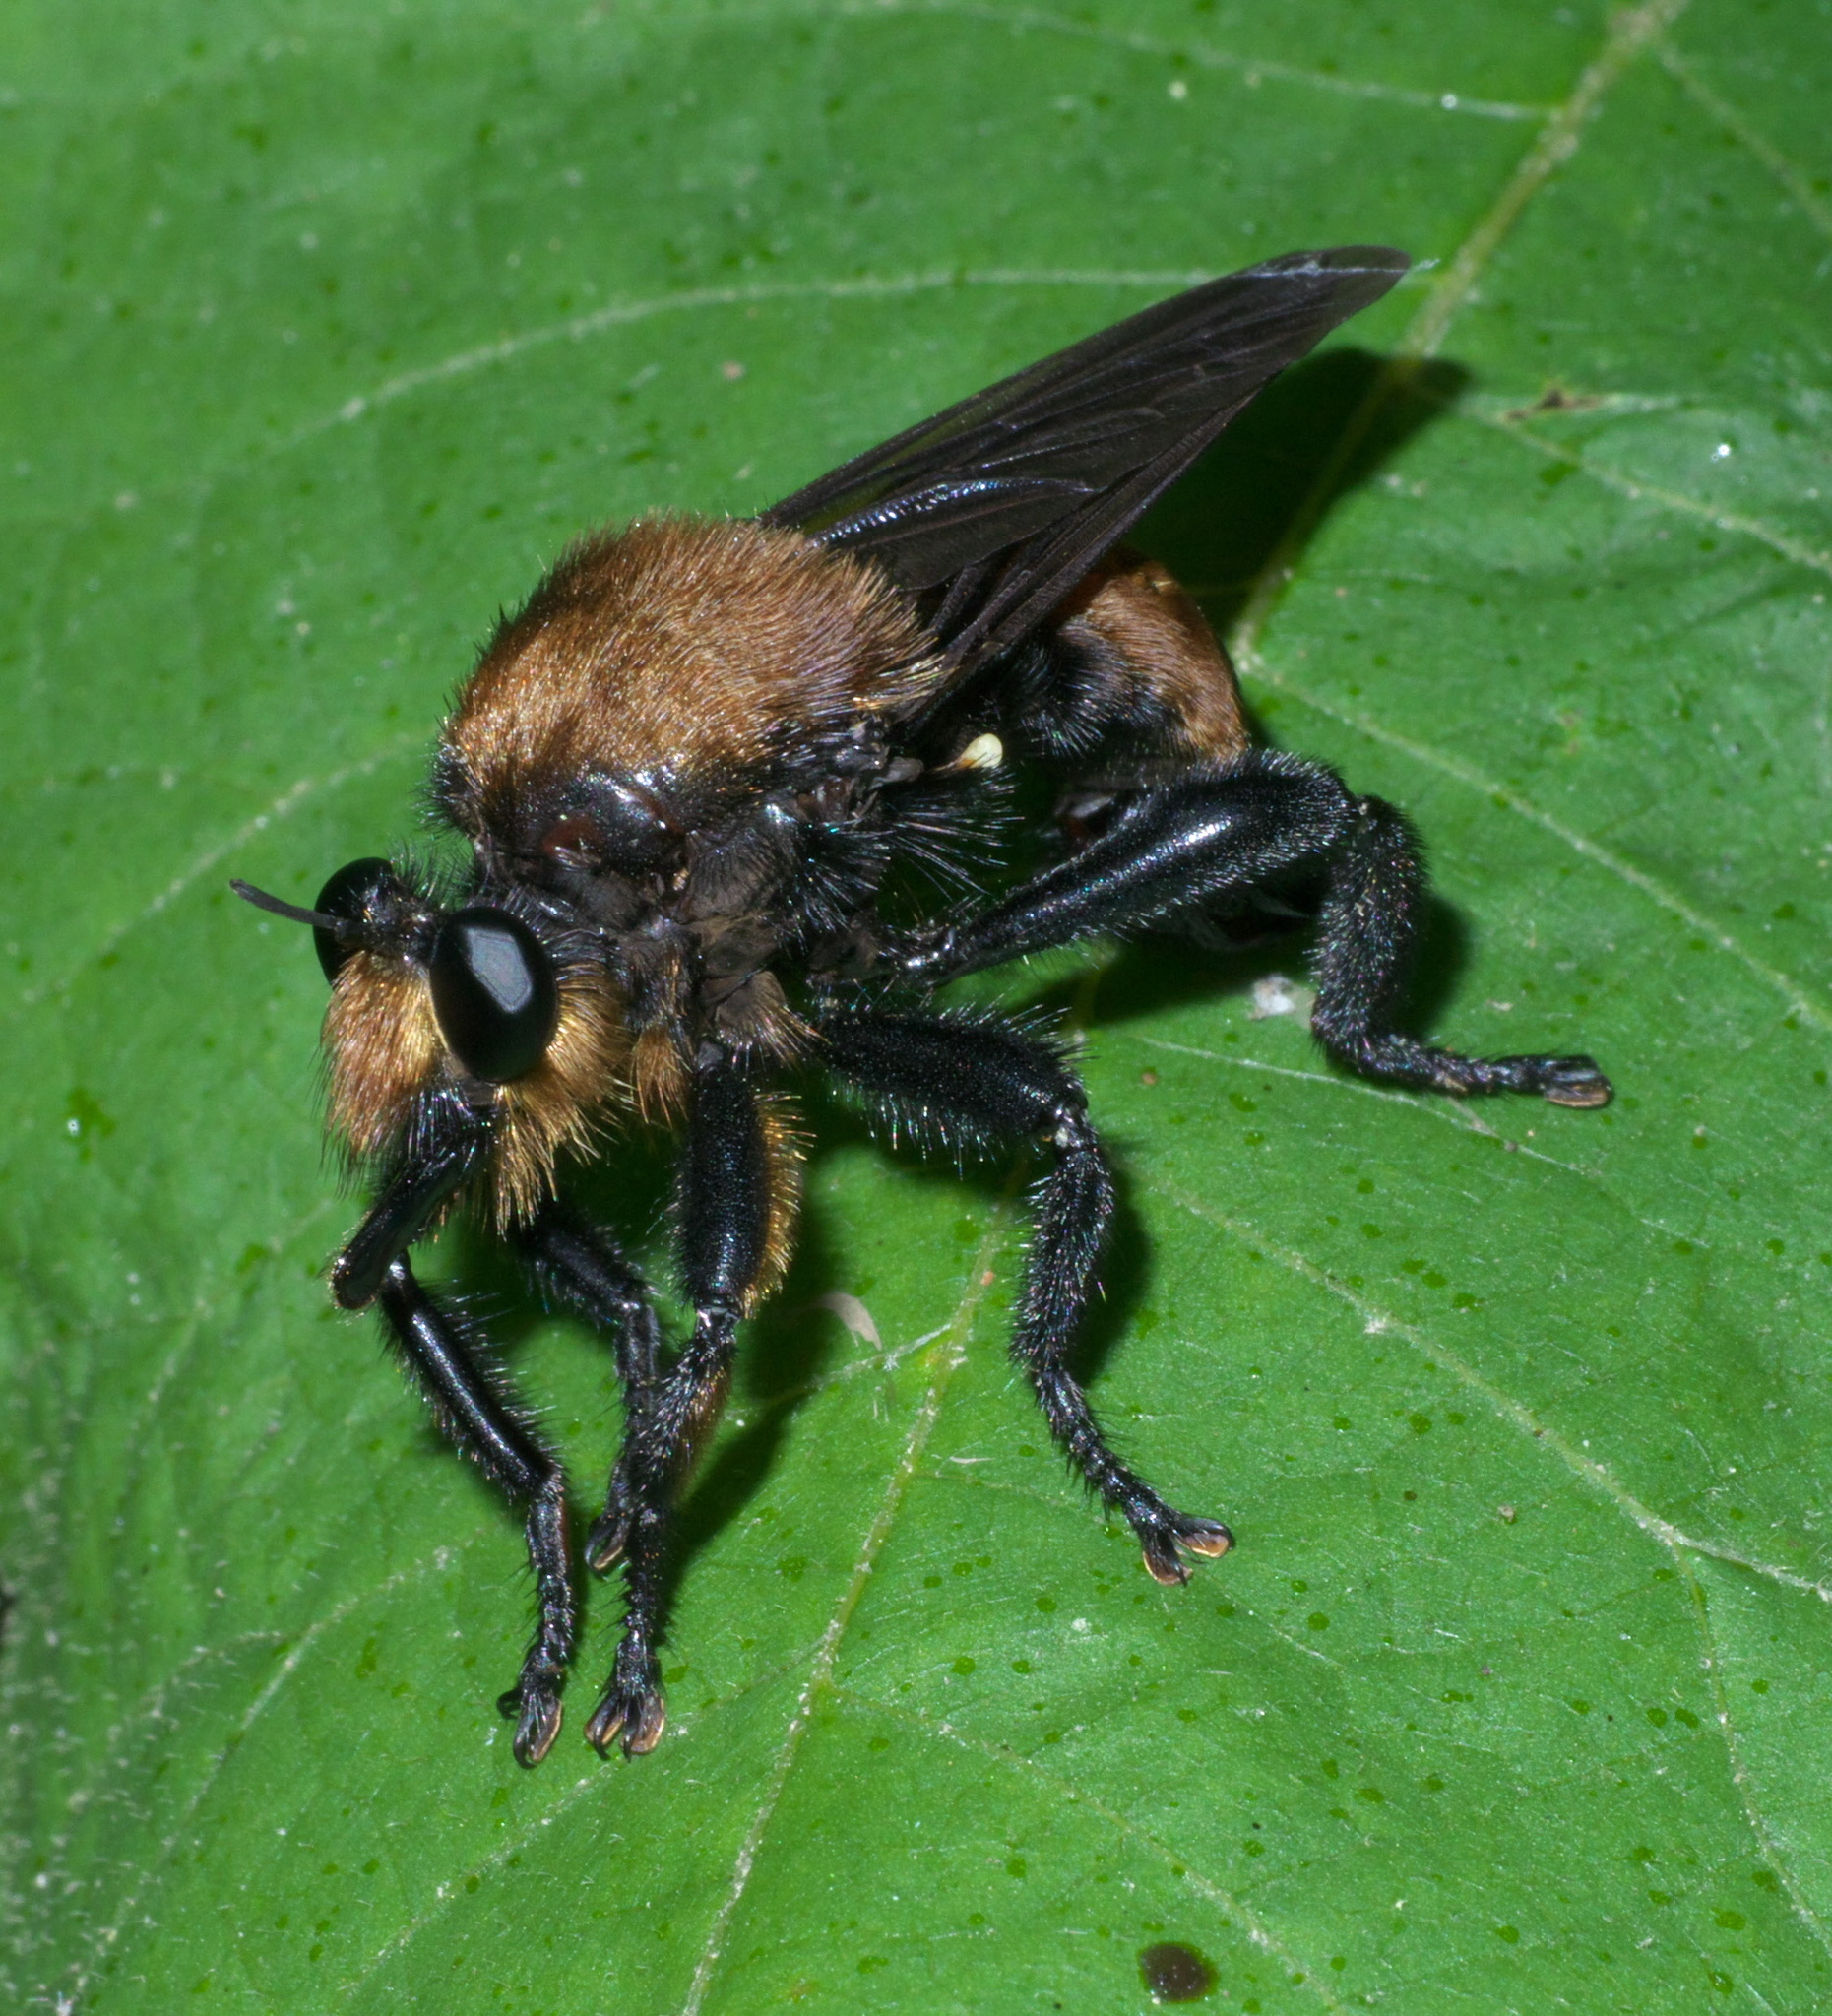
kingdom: Animalia
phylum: Arthropoda
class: Insecta
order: Diptera
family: Asilidae
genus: Laphria
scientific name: Laphria lata
